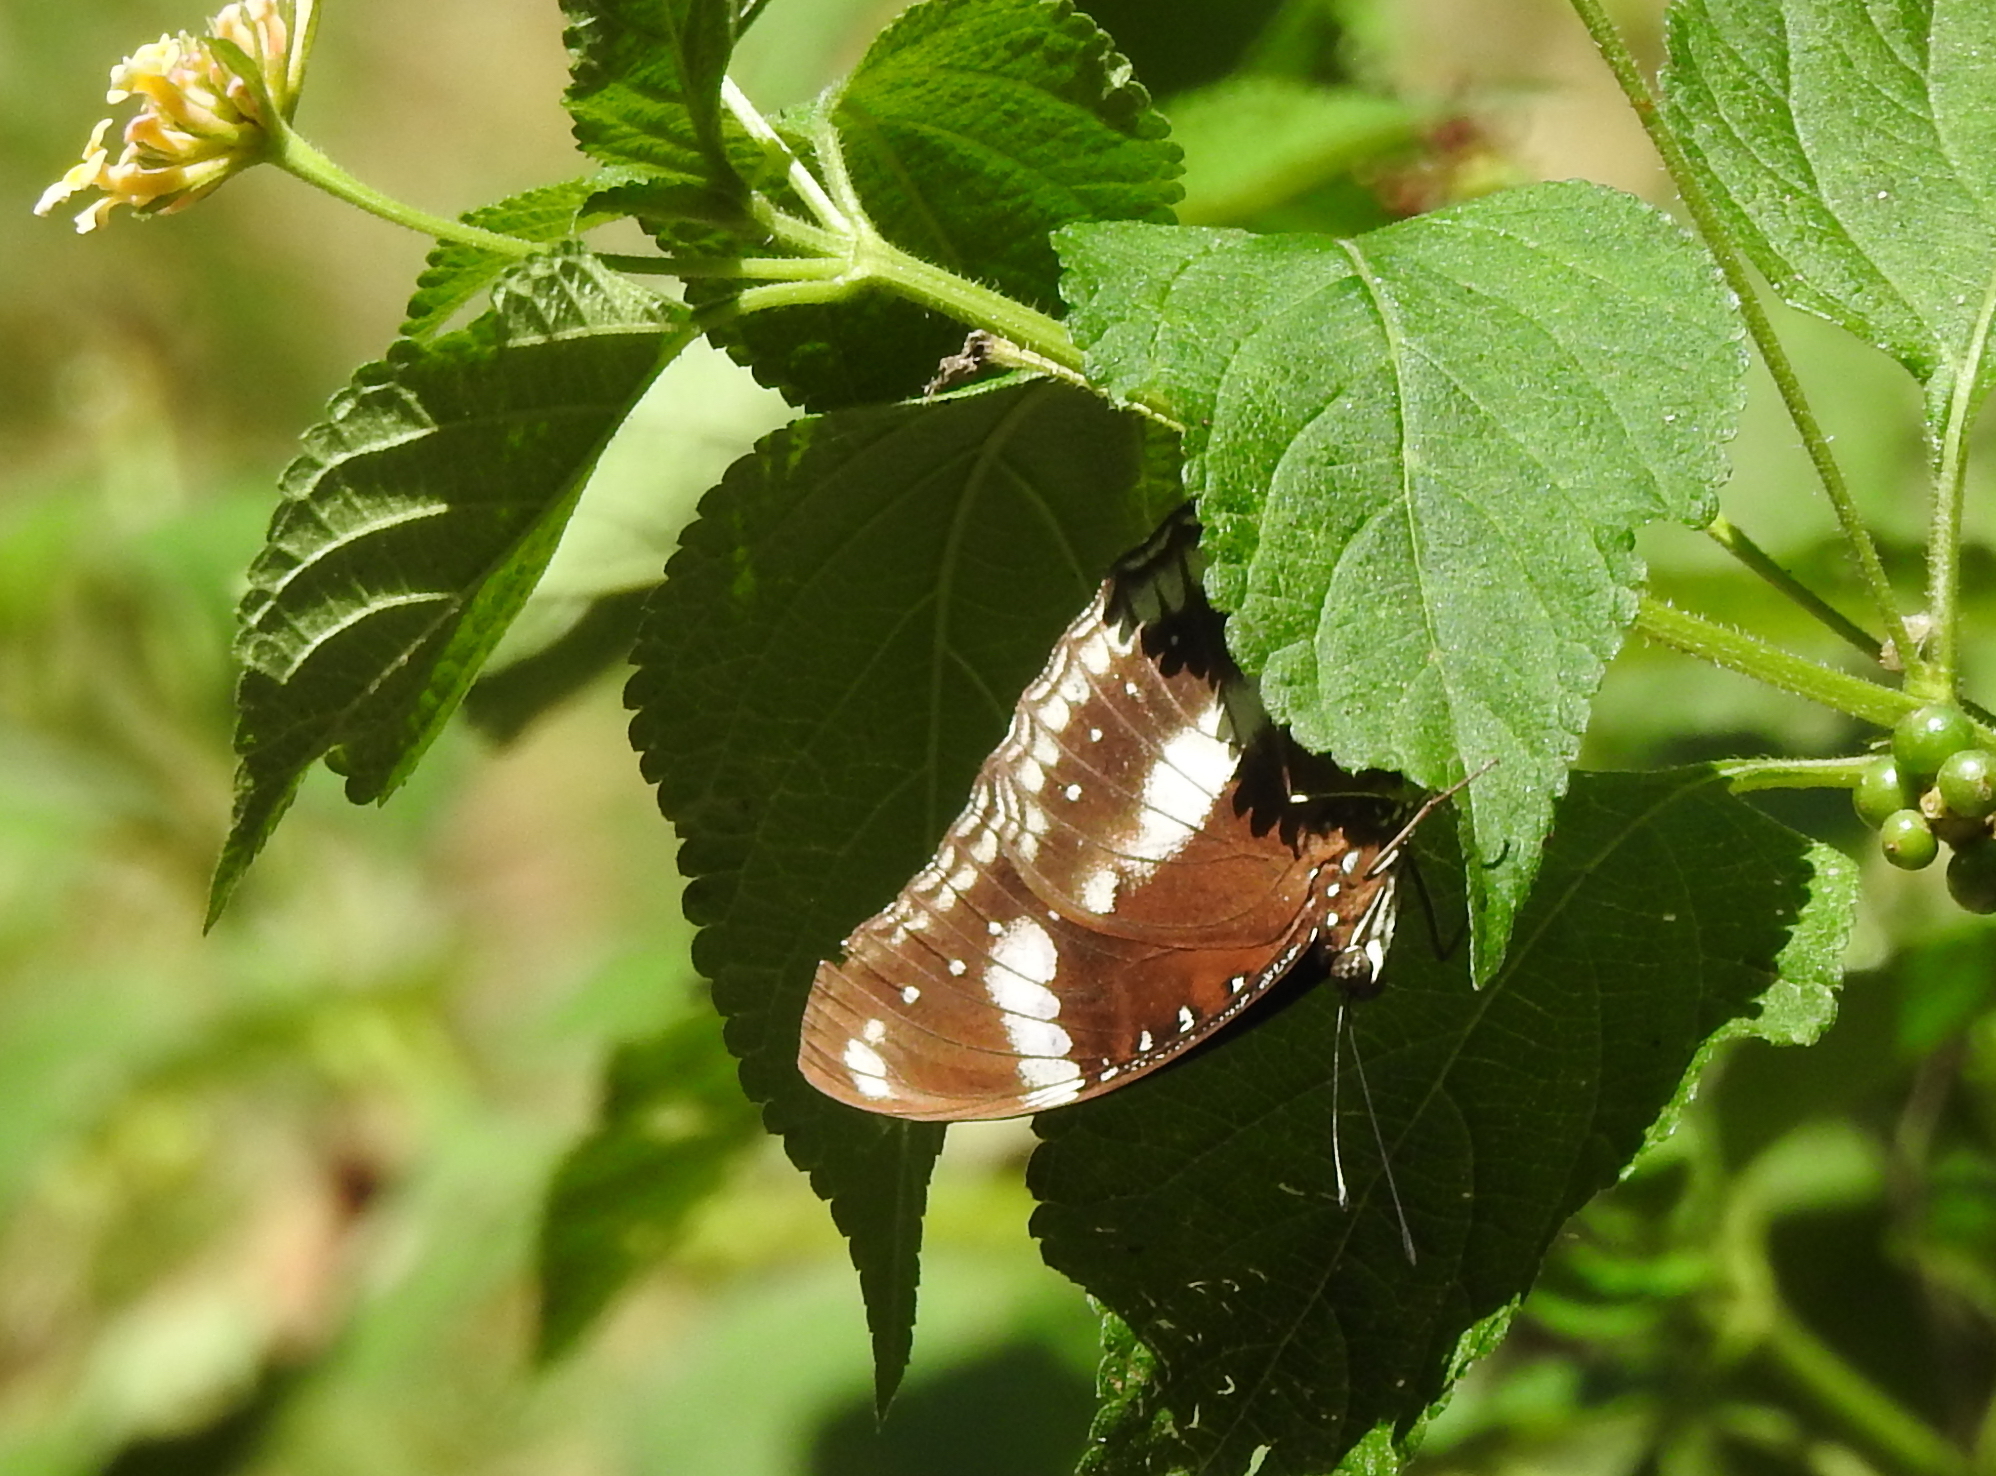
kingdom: Animalia
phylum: Arthropoda
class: Insecta
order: Lepidoptera
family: Nymphalidae
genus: Hypolimnas
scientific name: Hypolimnas bolina
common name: Great eggfly
